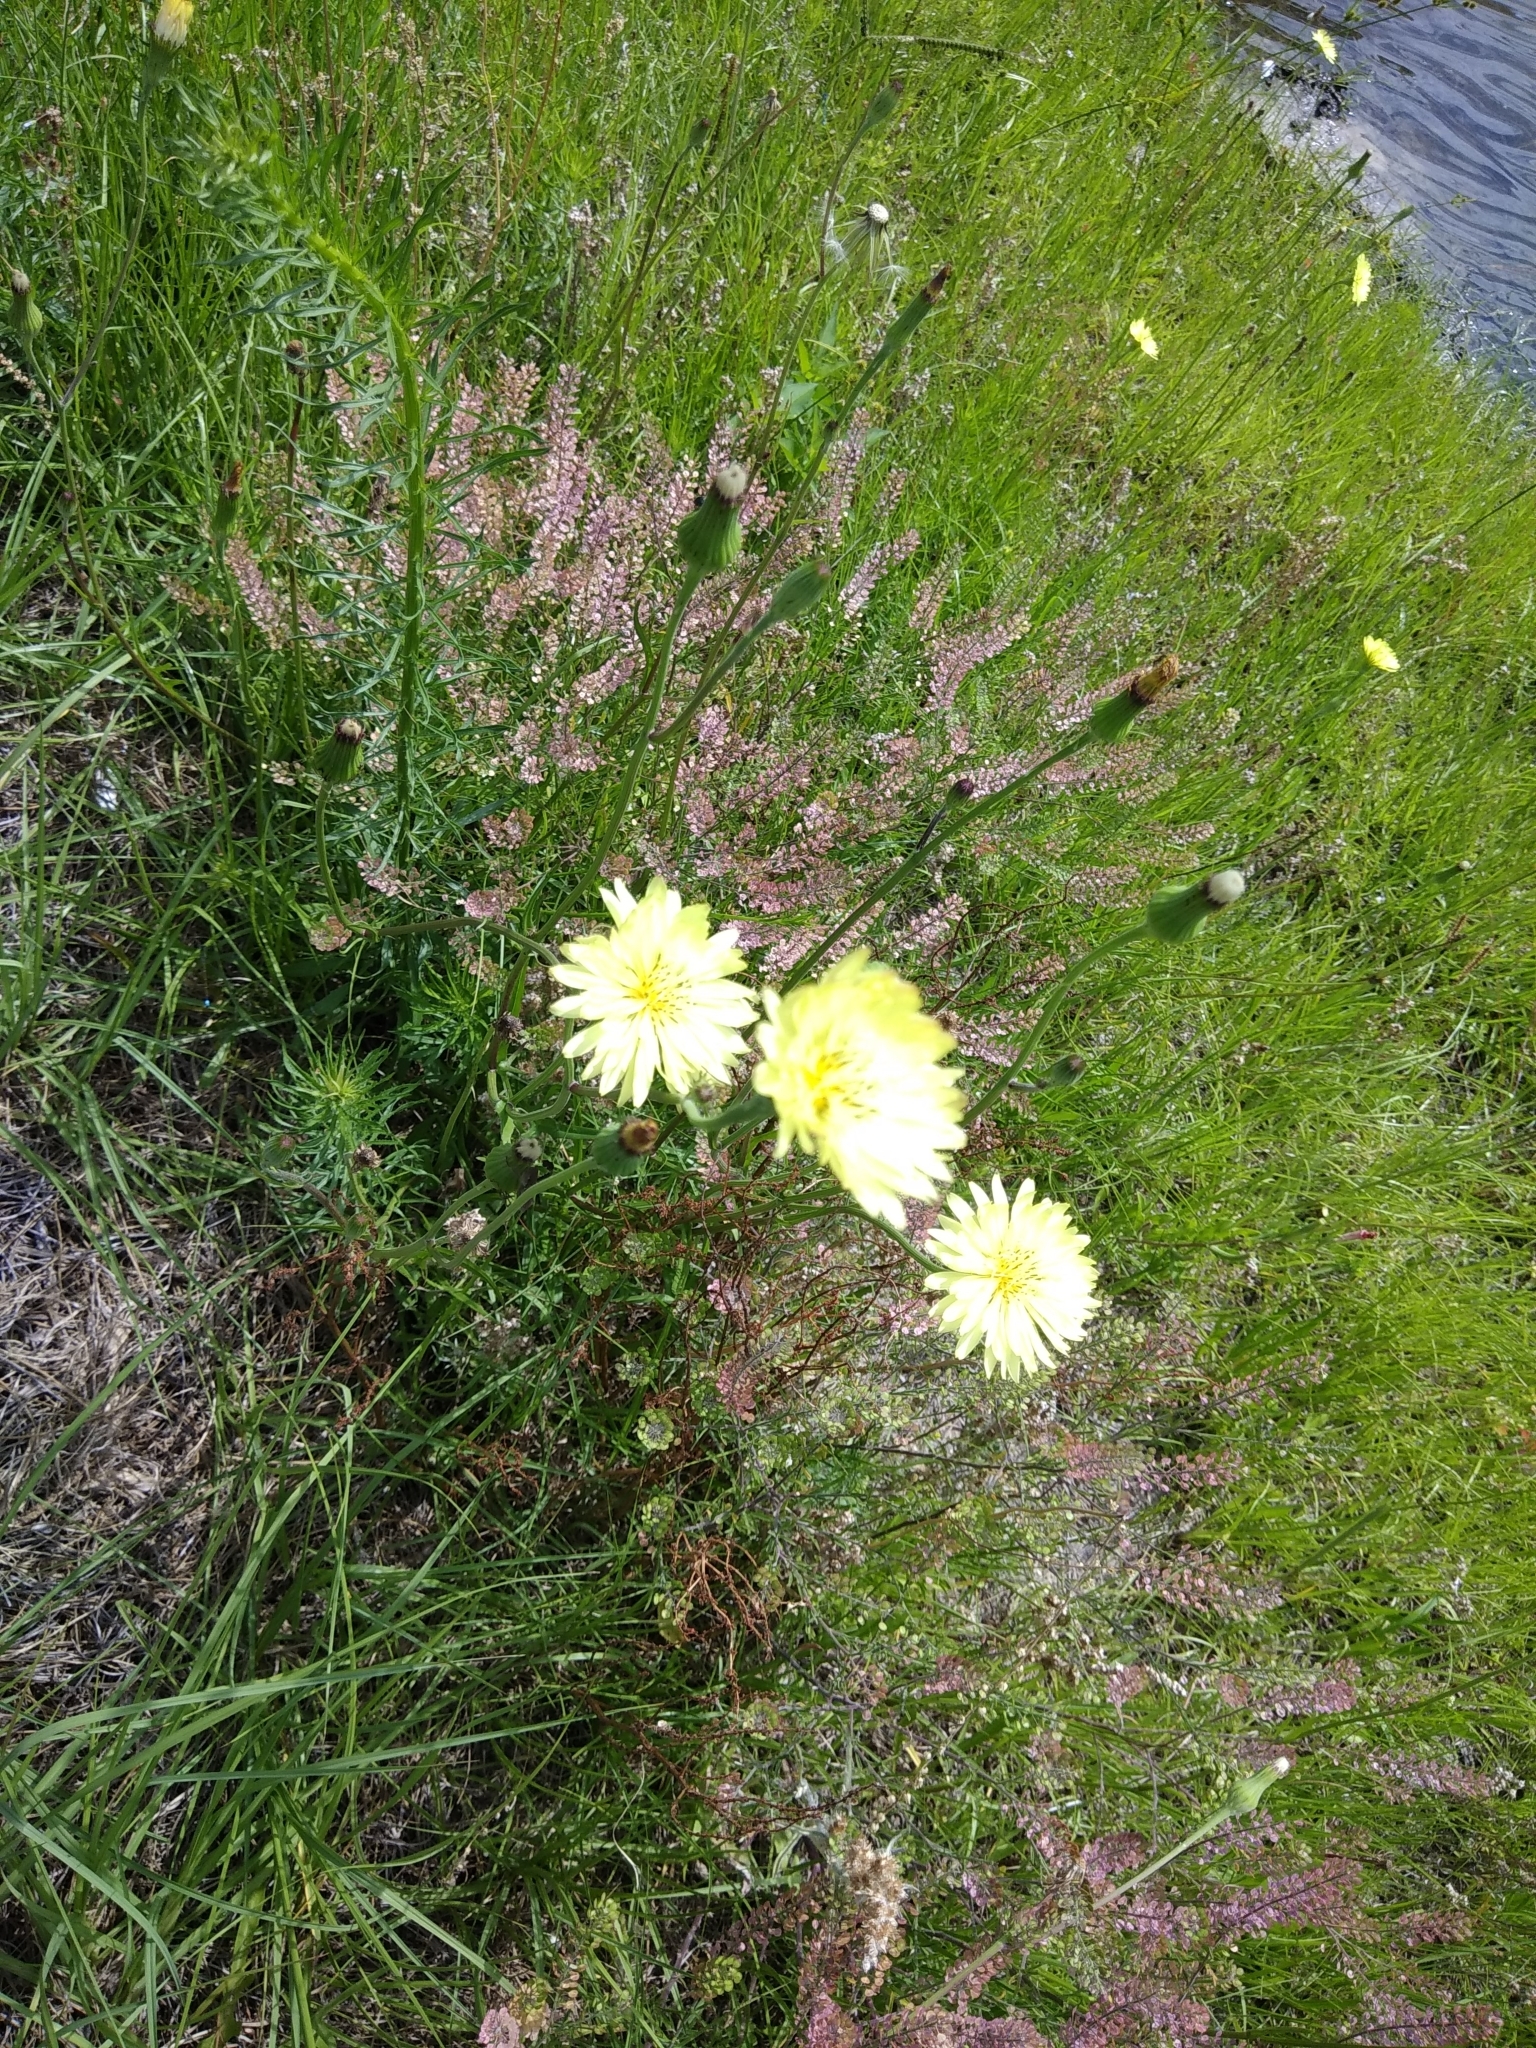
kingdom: Plantae
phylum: Tracheophyta
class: Magnoliopsida
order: Asterales
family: Asteraceae
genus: Pyrrhopappus
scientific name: Pyrrhopappus carolinianus
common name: Carolina desert-chicory
